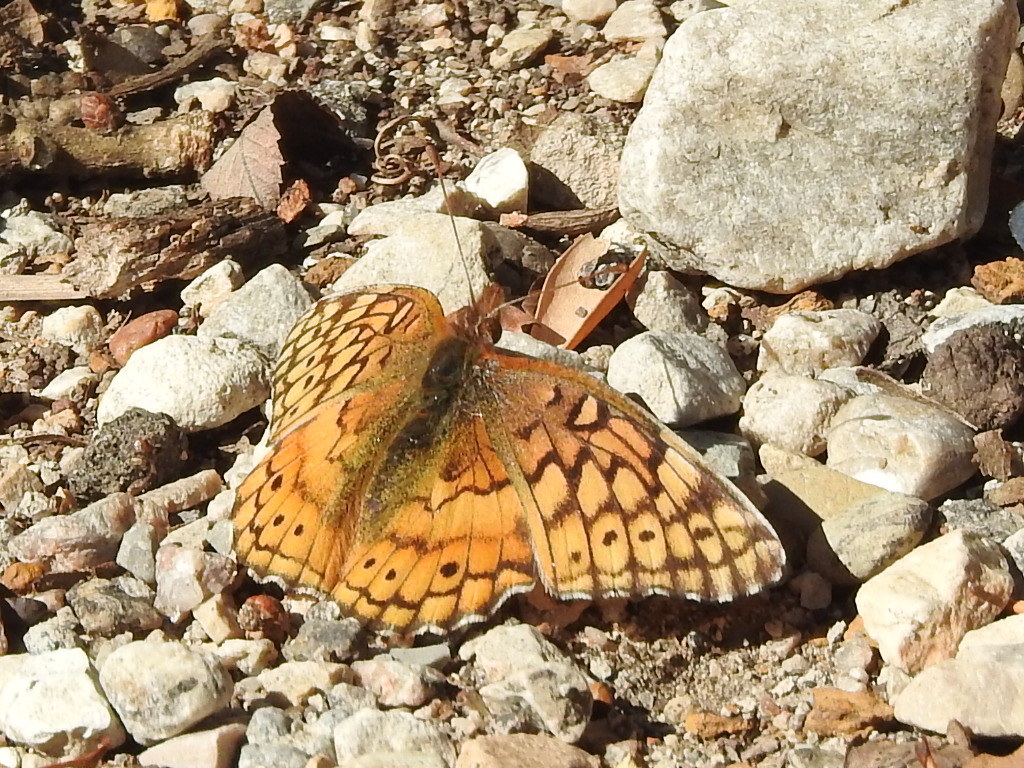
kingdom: Animalia
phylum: Arthropoda
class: Insecta
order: Lepidoptera
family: Nymphalidae
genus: Euptoieta
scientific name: Euptoieta claudia
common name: Variegated fritillary
